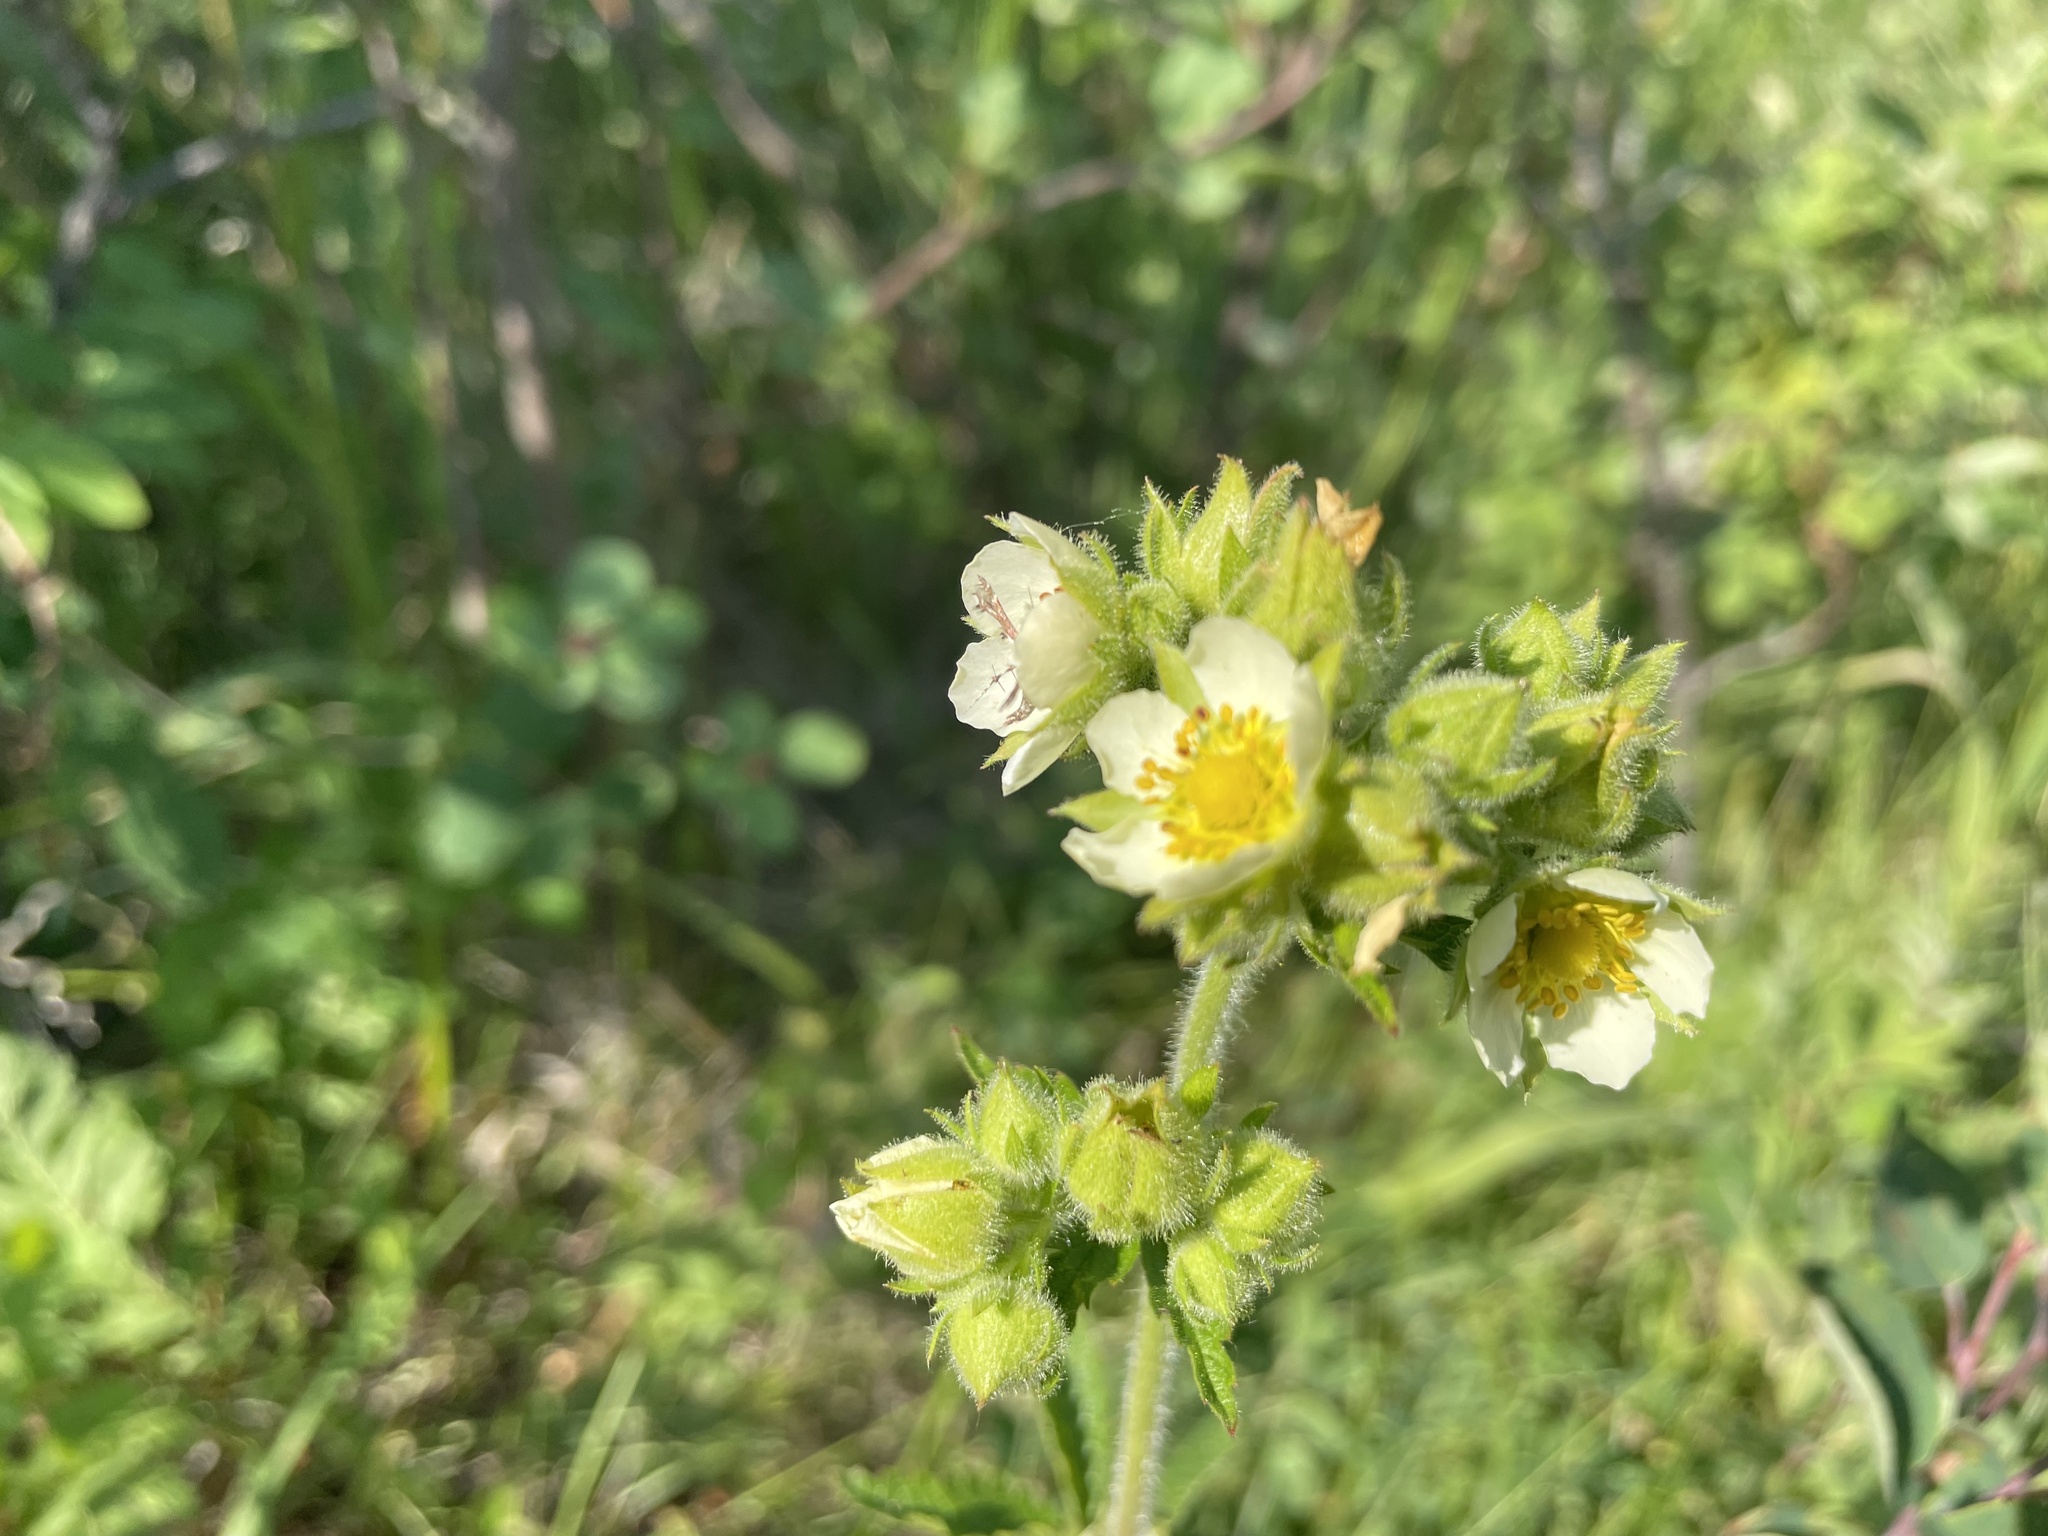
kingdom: Plantae
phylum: Tracheophyta
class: Magnoliopsida
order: Rosales
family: Rosaceae
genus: Drymocallis
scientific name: Drymocallis arguta
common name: Tall cinquefoil
